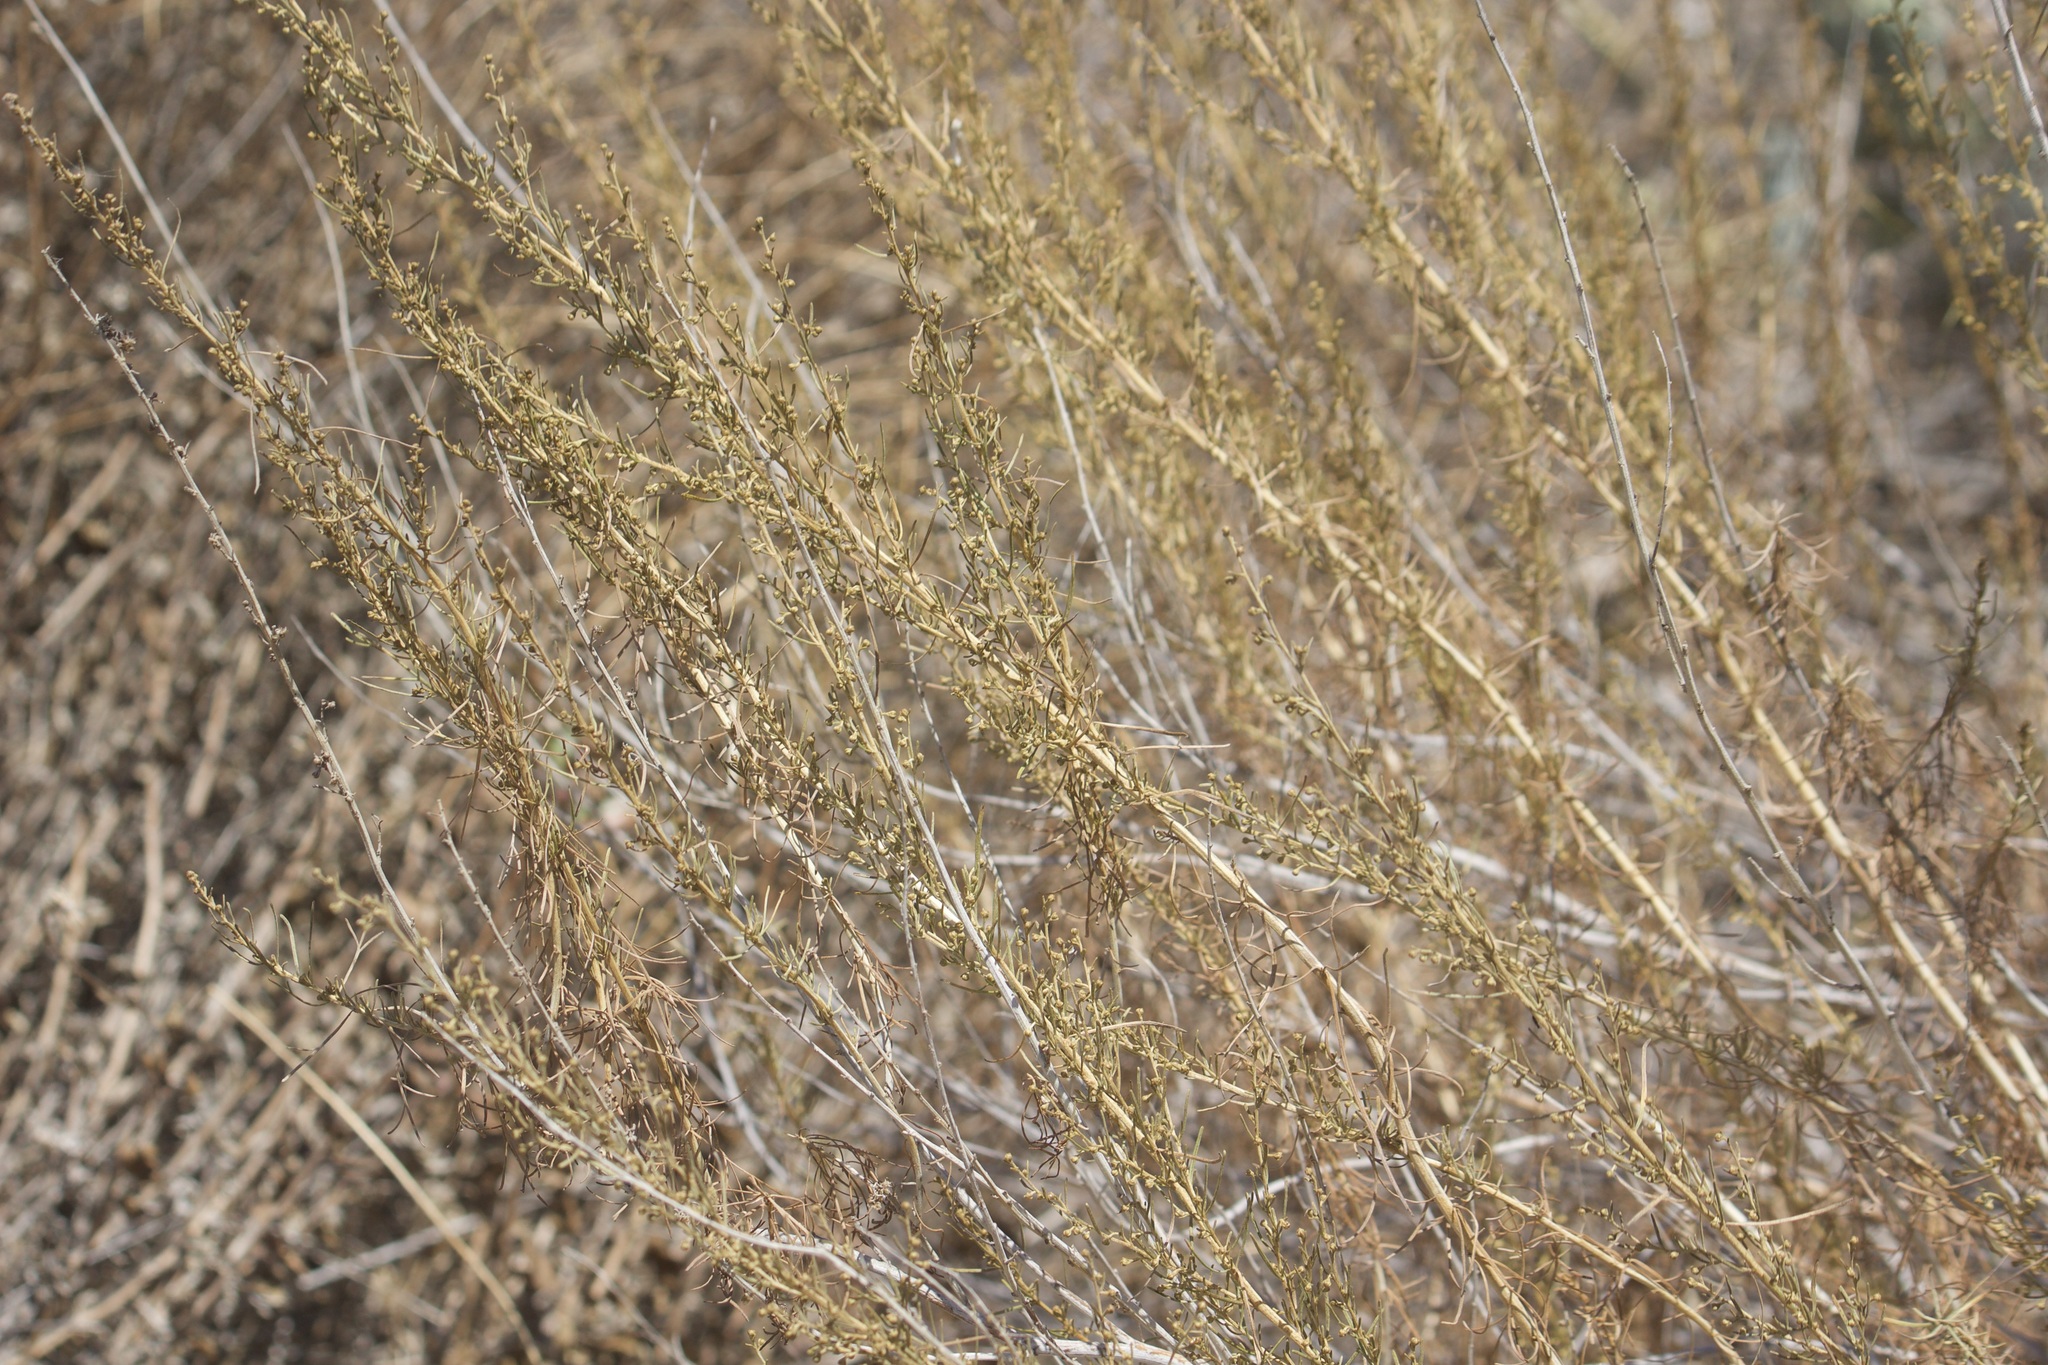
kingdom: Plantae
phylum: Tracheophyta
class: Magnoliopsida
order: Asterales
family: Asteraceae
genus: Artemisia
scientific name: Artemisia californica
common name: California sagebrush
